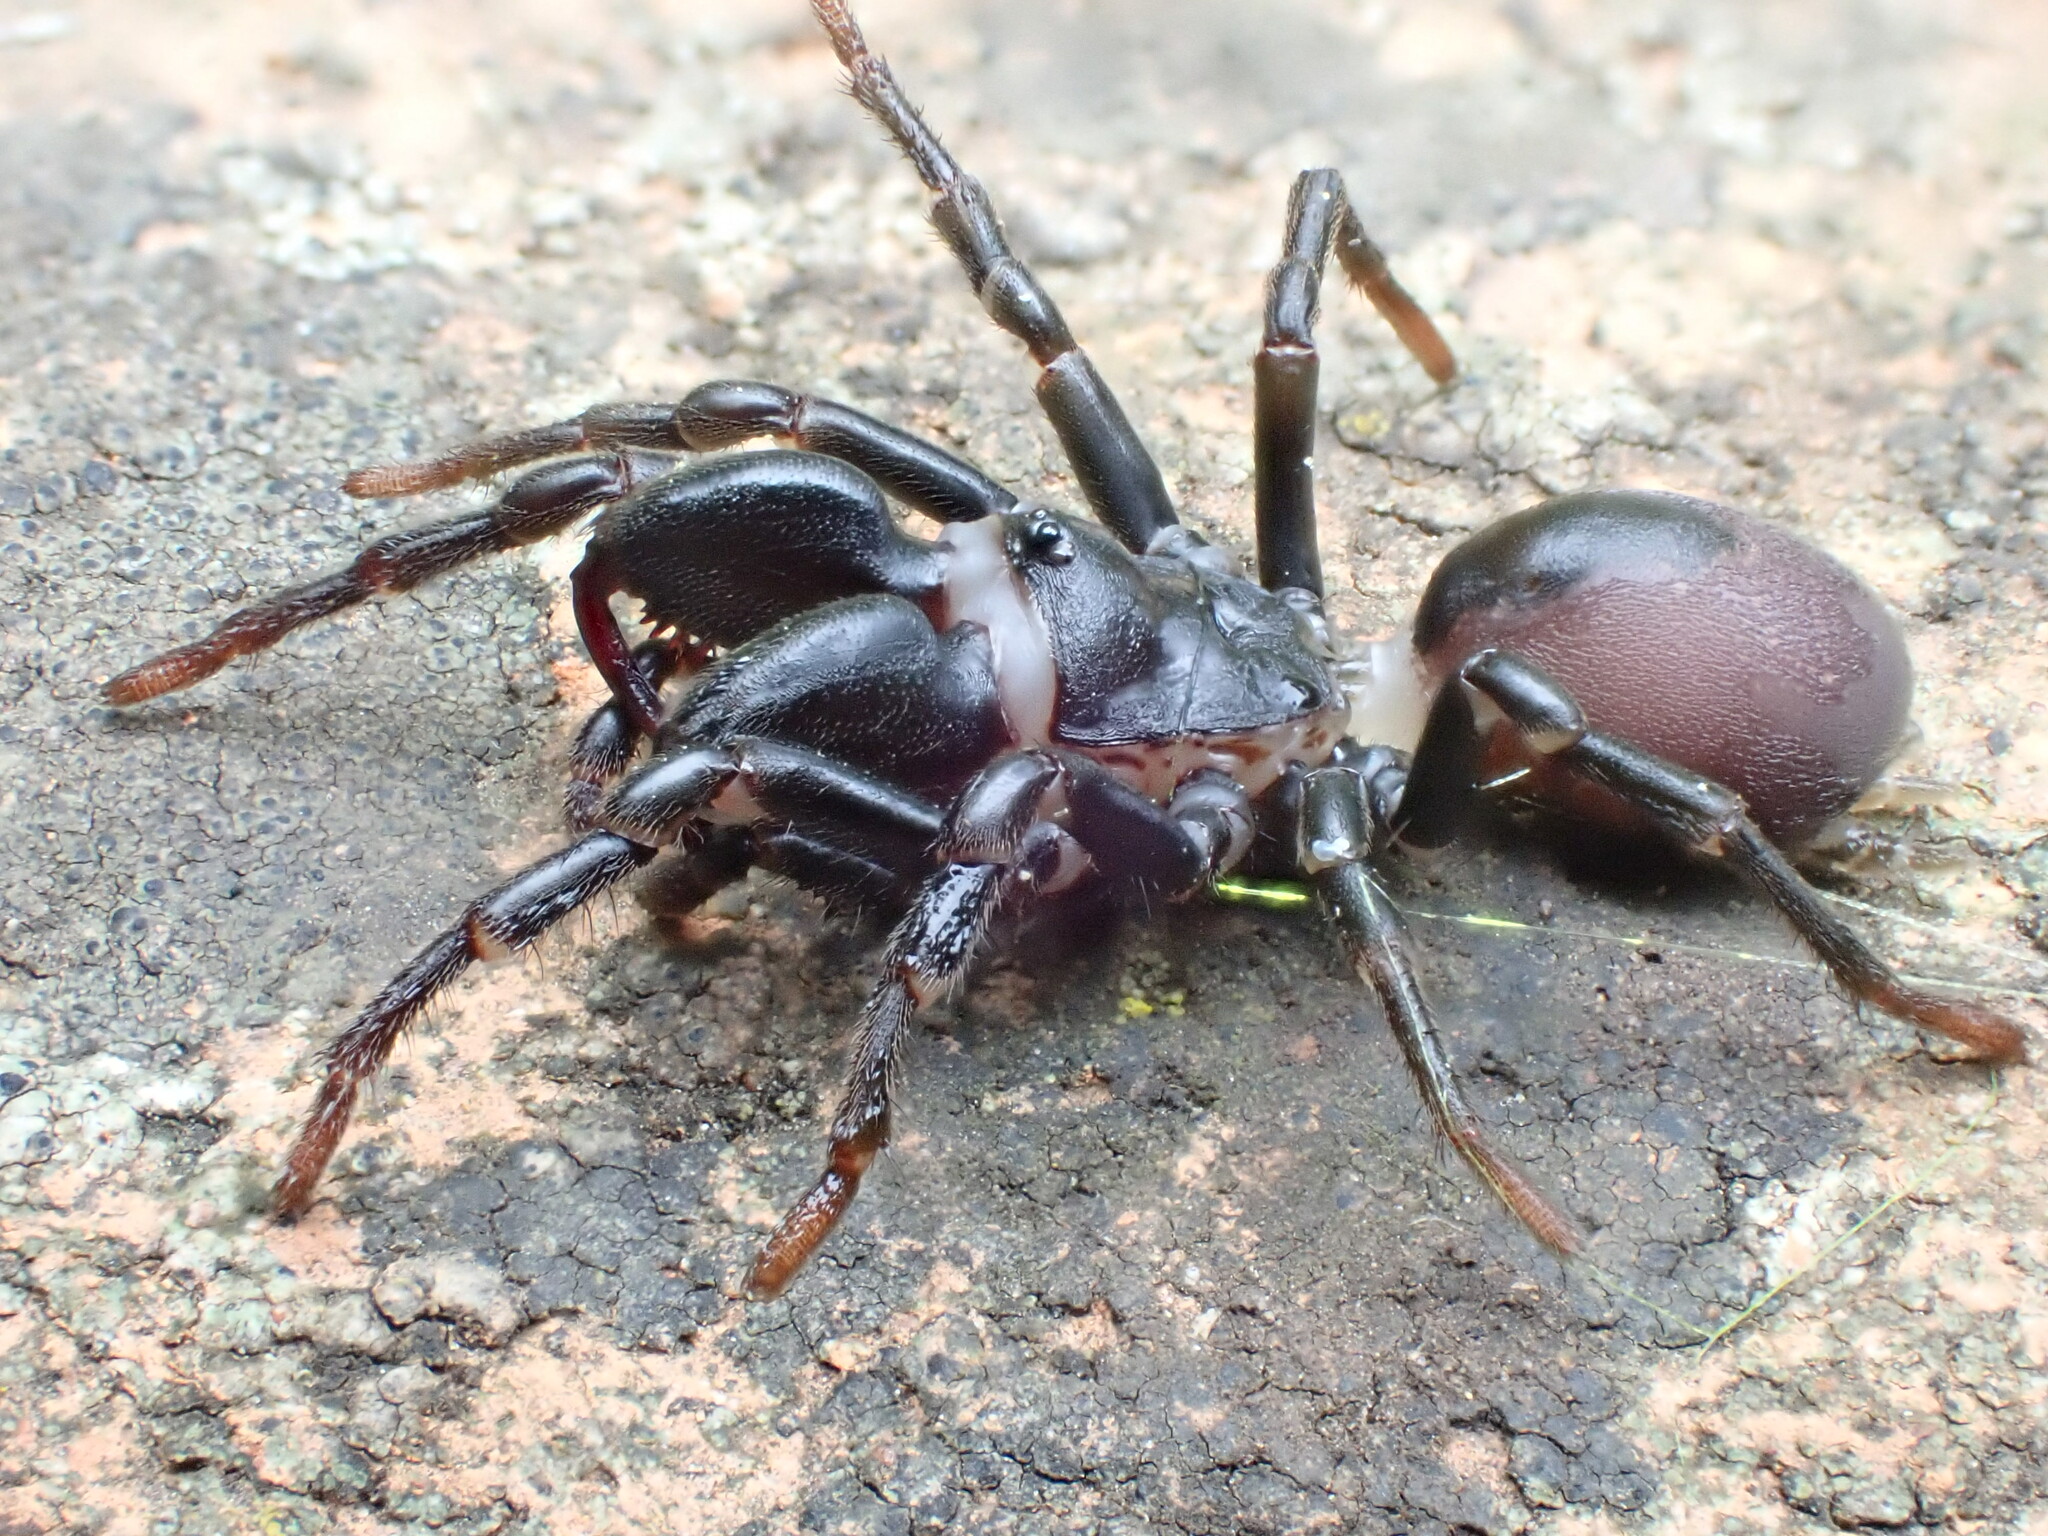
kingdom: Animalia
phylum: Arthropoda
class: Arachnida
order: Araneae
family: Atypidae
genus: Atypus
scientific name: Atypus affinis
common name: Purse web spider
